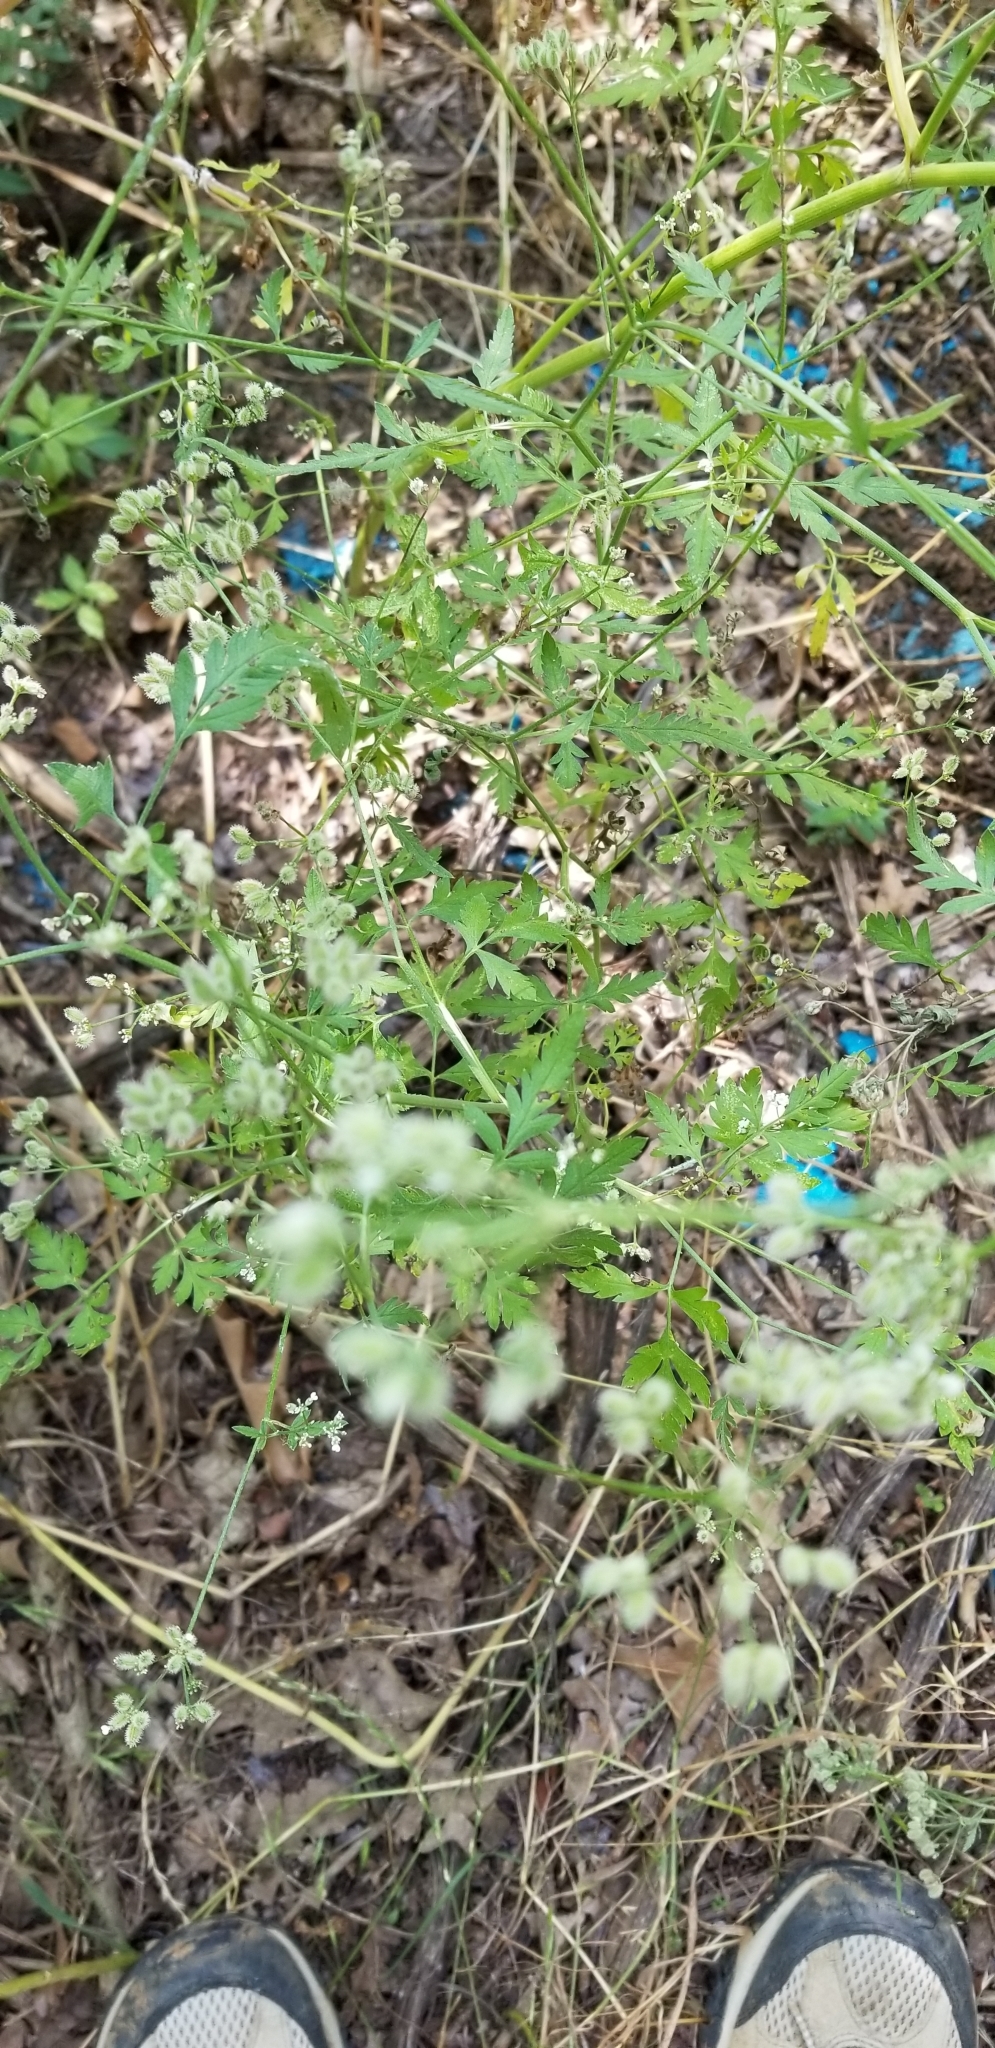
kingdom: Plantae
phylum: Tracheophyta
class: Magnoliopsida
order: Apiales
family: Apiaceae
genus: Torilis
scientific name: Torilis arvensis
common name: Spreading hedge-parsley
